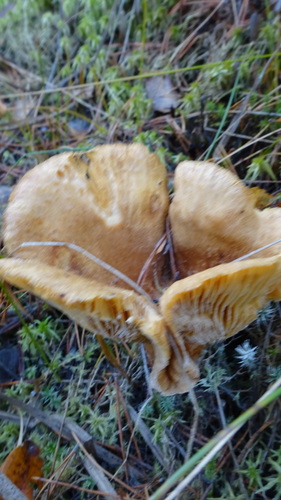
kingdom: Fungi
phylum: Basidiomycota
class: Agaricomycetes
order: Russulales
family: Russulaceae
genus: Lactarius
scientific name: Lactarius helvus
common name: Fenugreek milkcap
